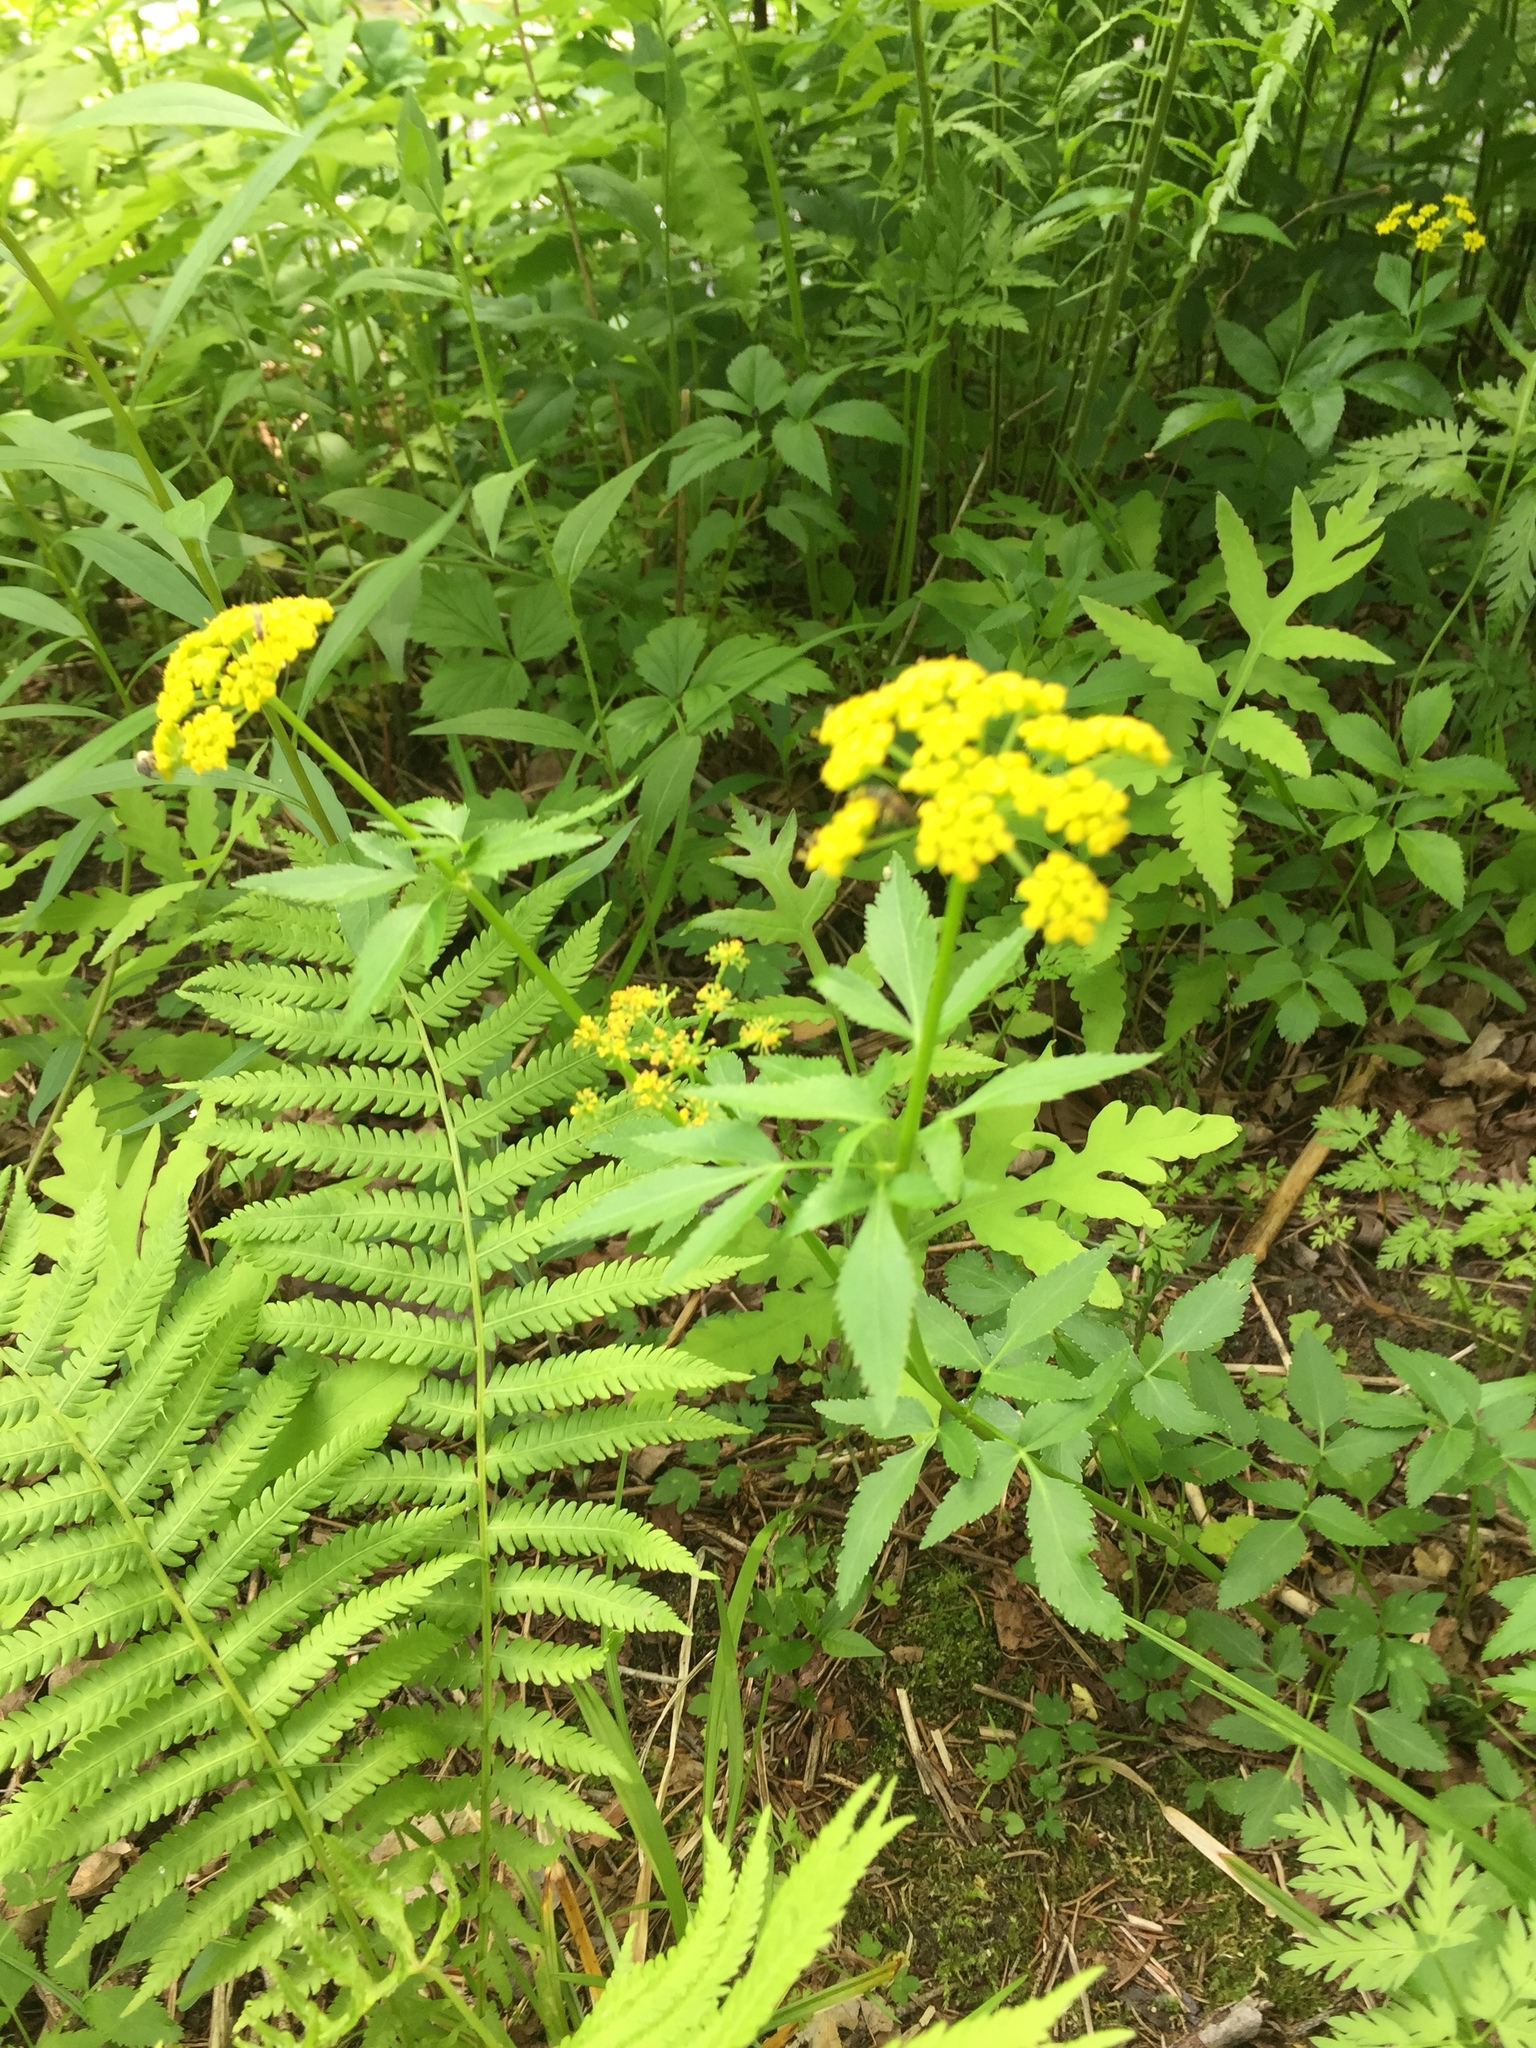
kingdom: Plantae
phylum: Tracheophyta
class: Magnoliopsida
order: Apiales
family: Apiaceae
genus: Zizia
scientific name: Zizia aurea
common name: Golden alexanders
